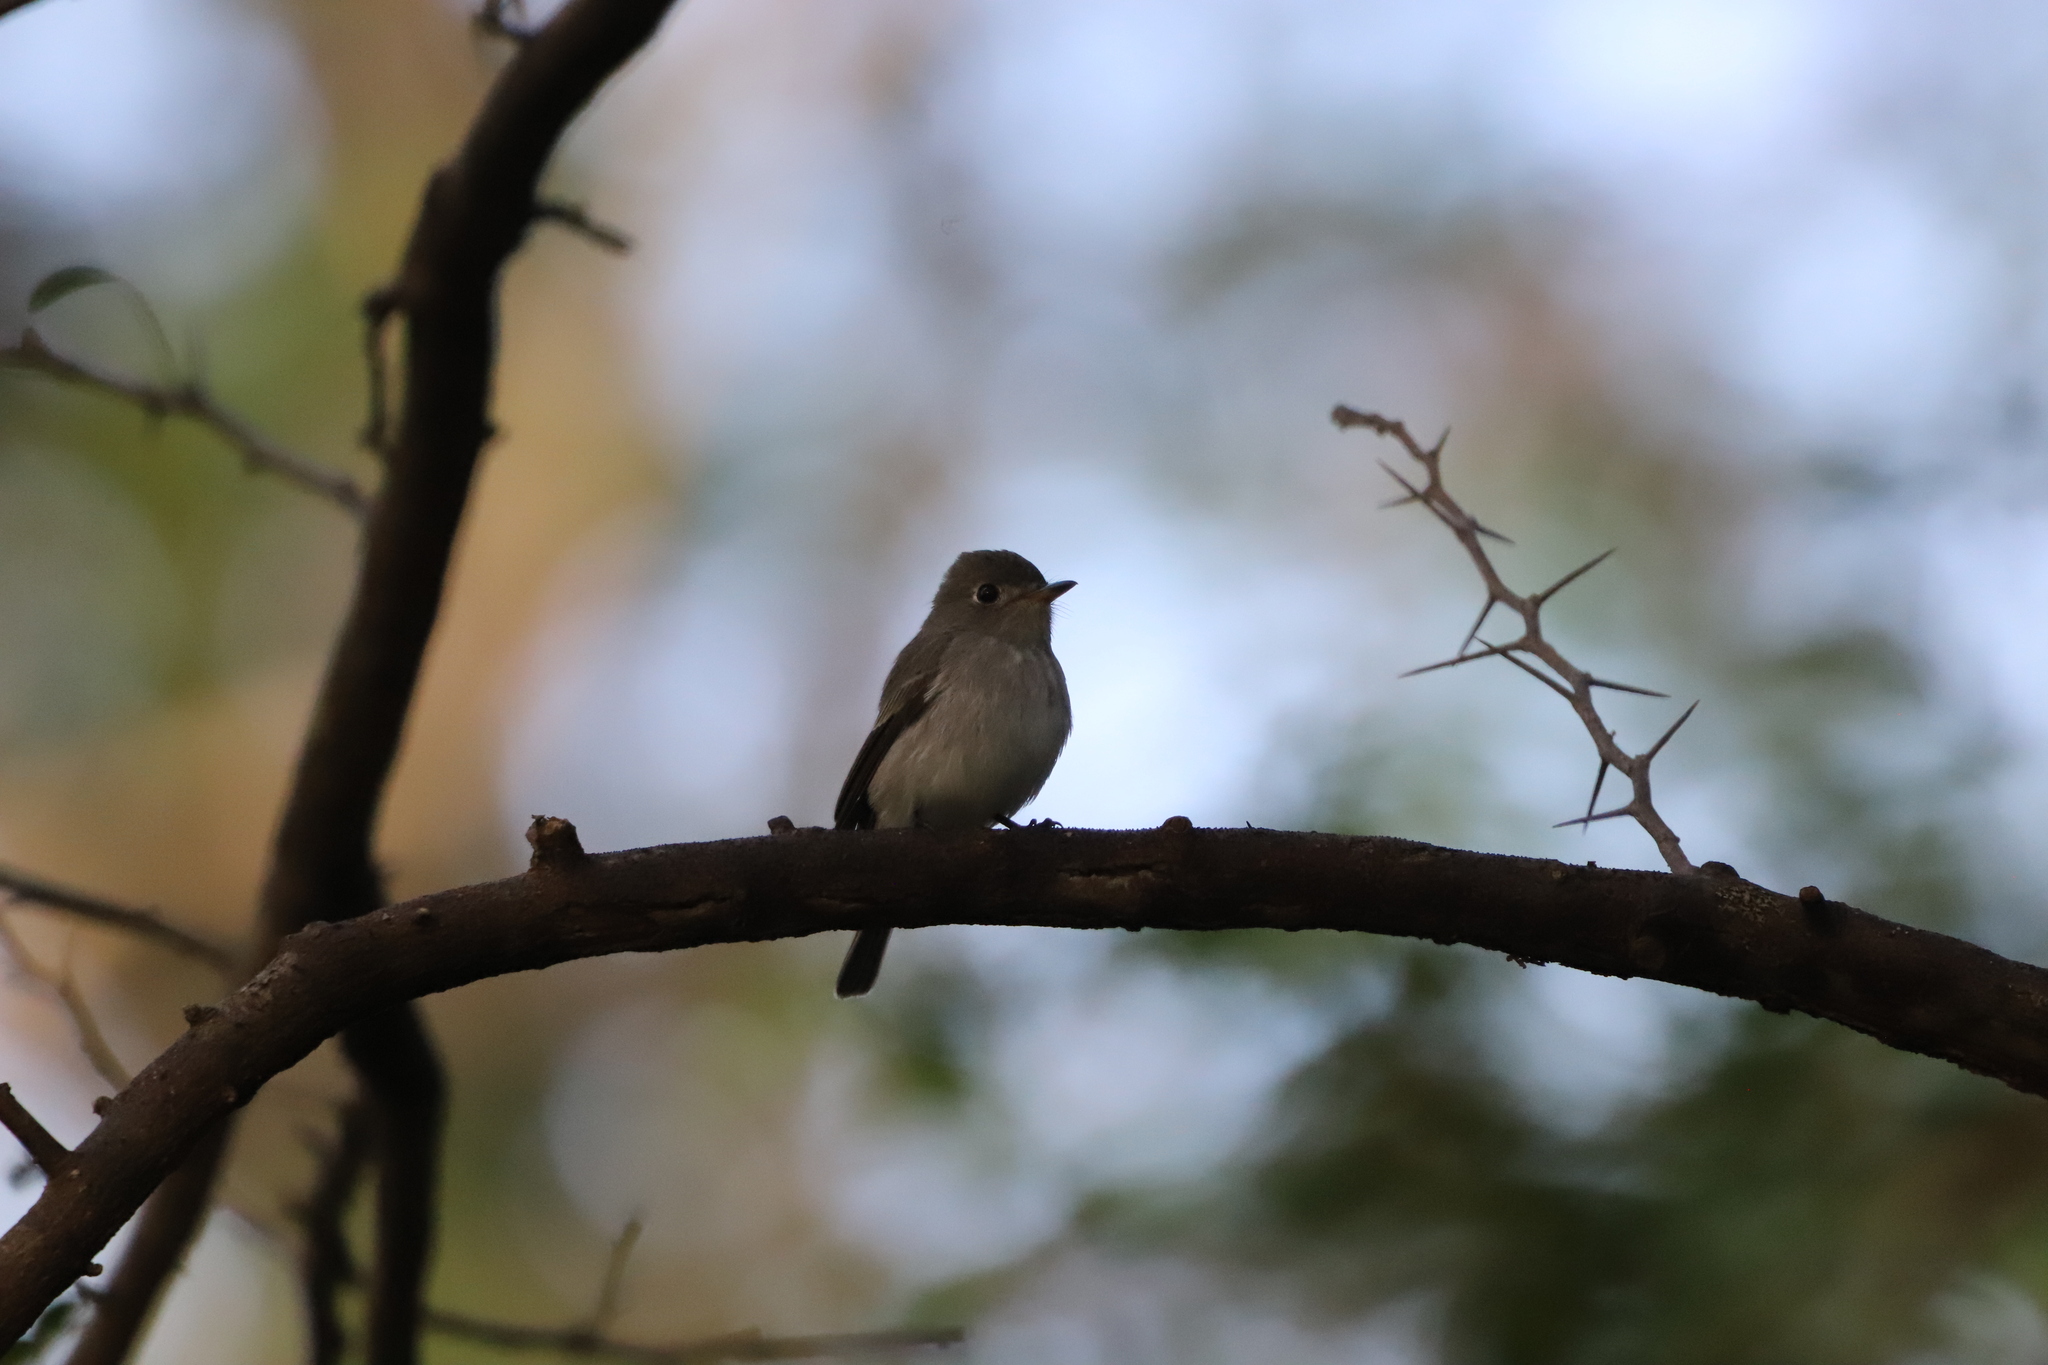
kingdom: Animalia
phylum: Chordata
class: Aves
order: Passeriformes
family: Muscicapidae
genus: Muscicapa
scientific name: Muscicapa latirostris
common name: Asian brown flycatcher
